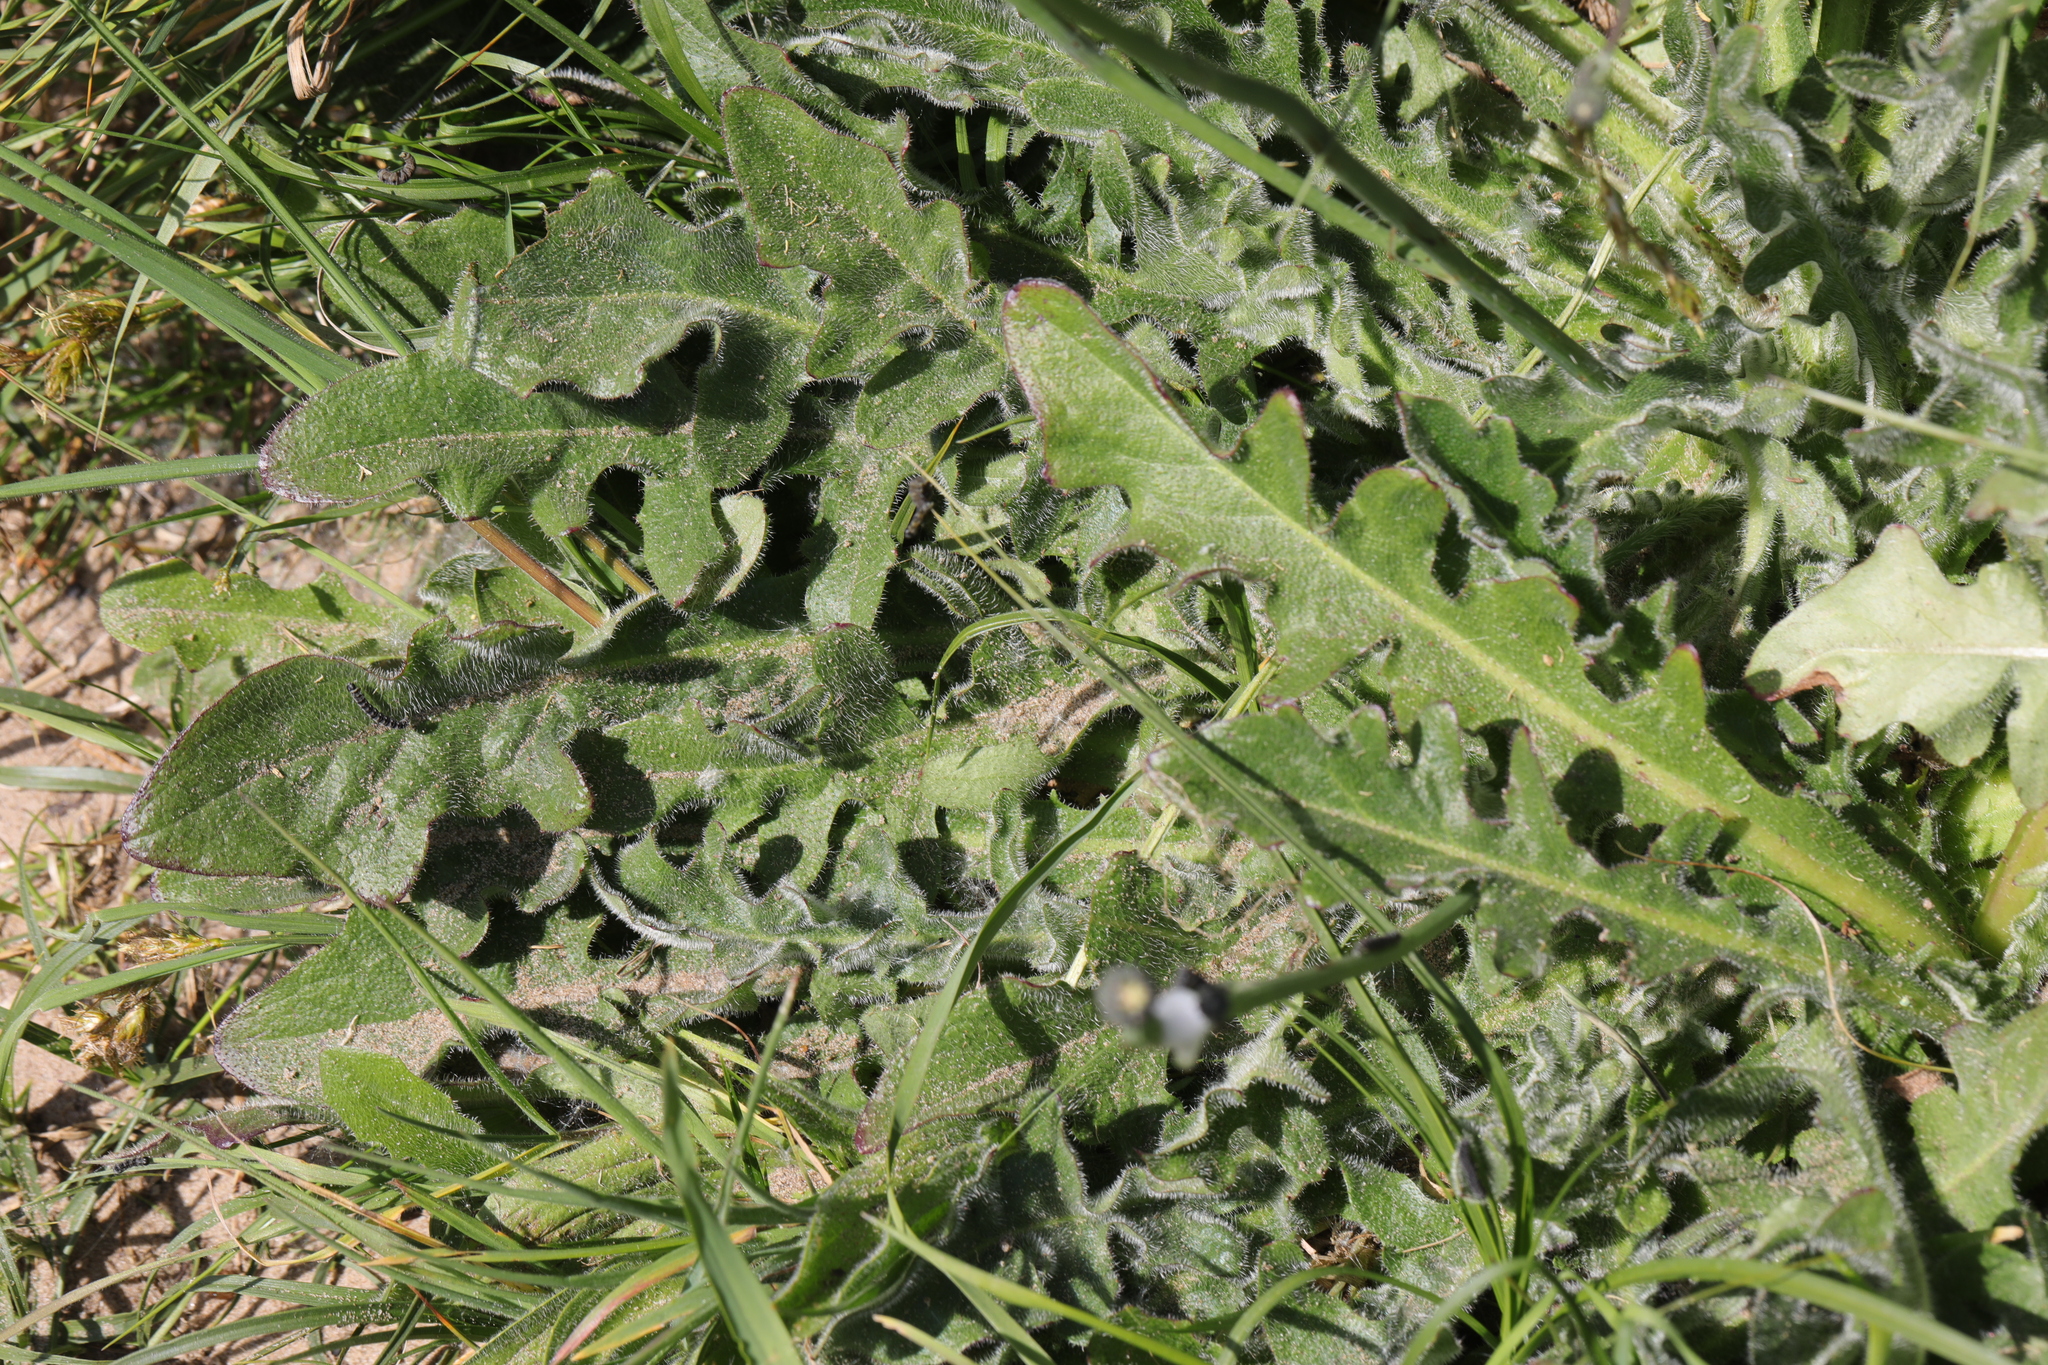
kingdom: Plantae
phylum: Tracheophyta
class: Magnoliopsida
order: Asterales
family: Asteraceae
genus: Hypochaeris
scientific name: Hypochaeris radicata
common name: Flatweed
